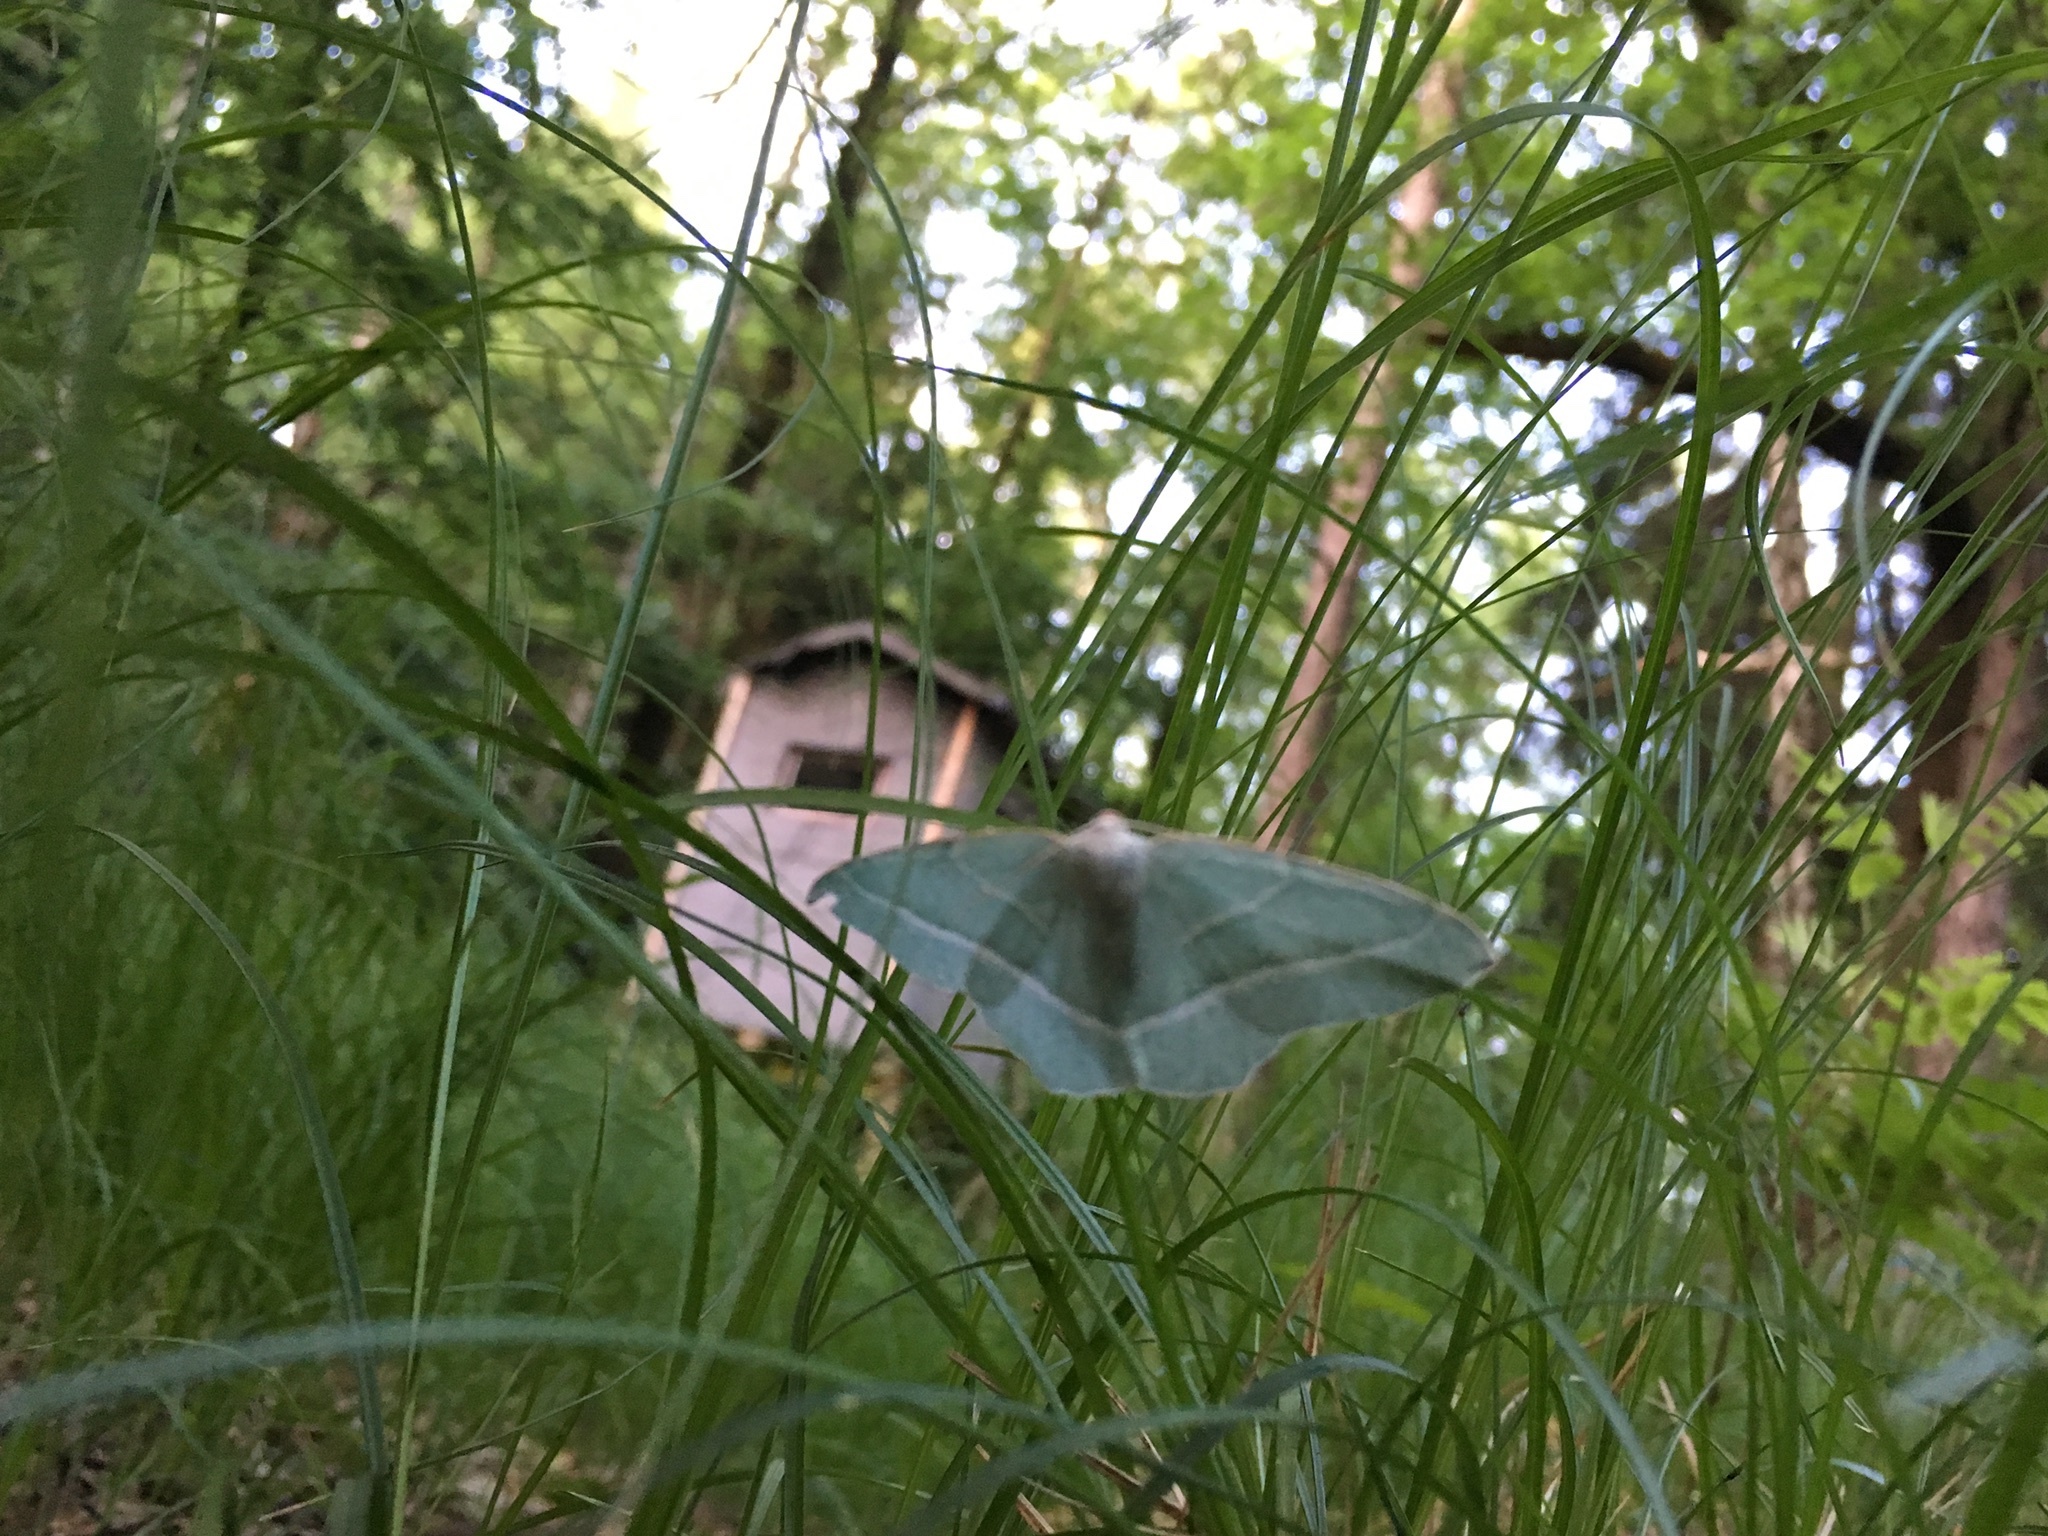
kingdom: Animalia
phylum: Arthropoda
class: Insecta
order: Lepidoptera
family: Geometridae
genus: Campaea
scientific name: Campaea margaritaria
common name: Light emerald
